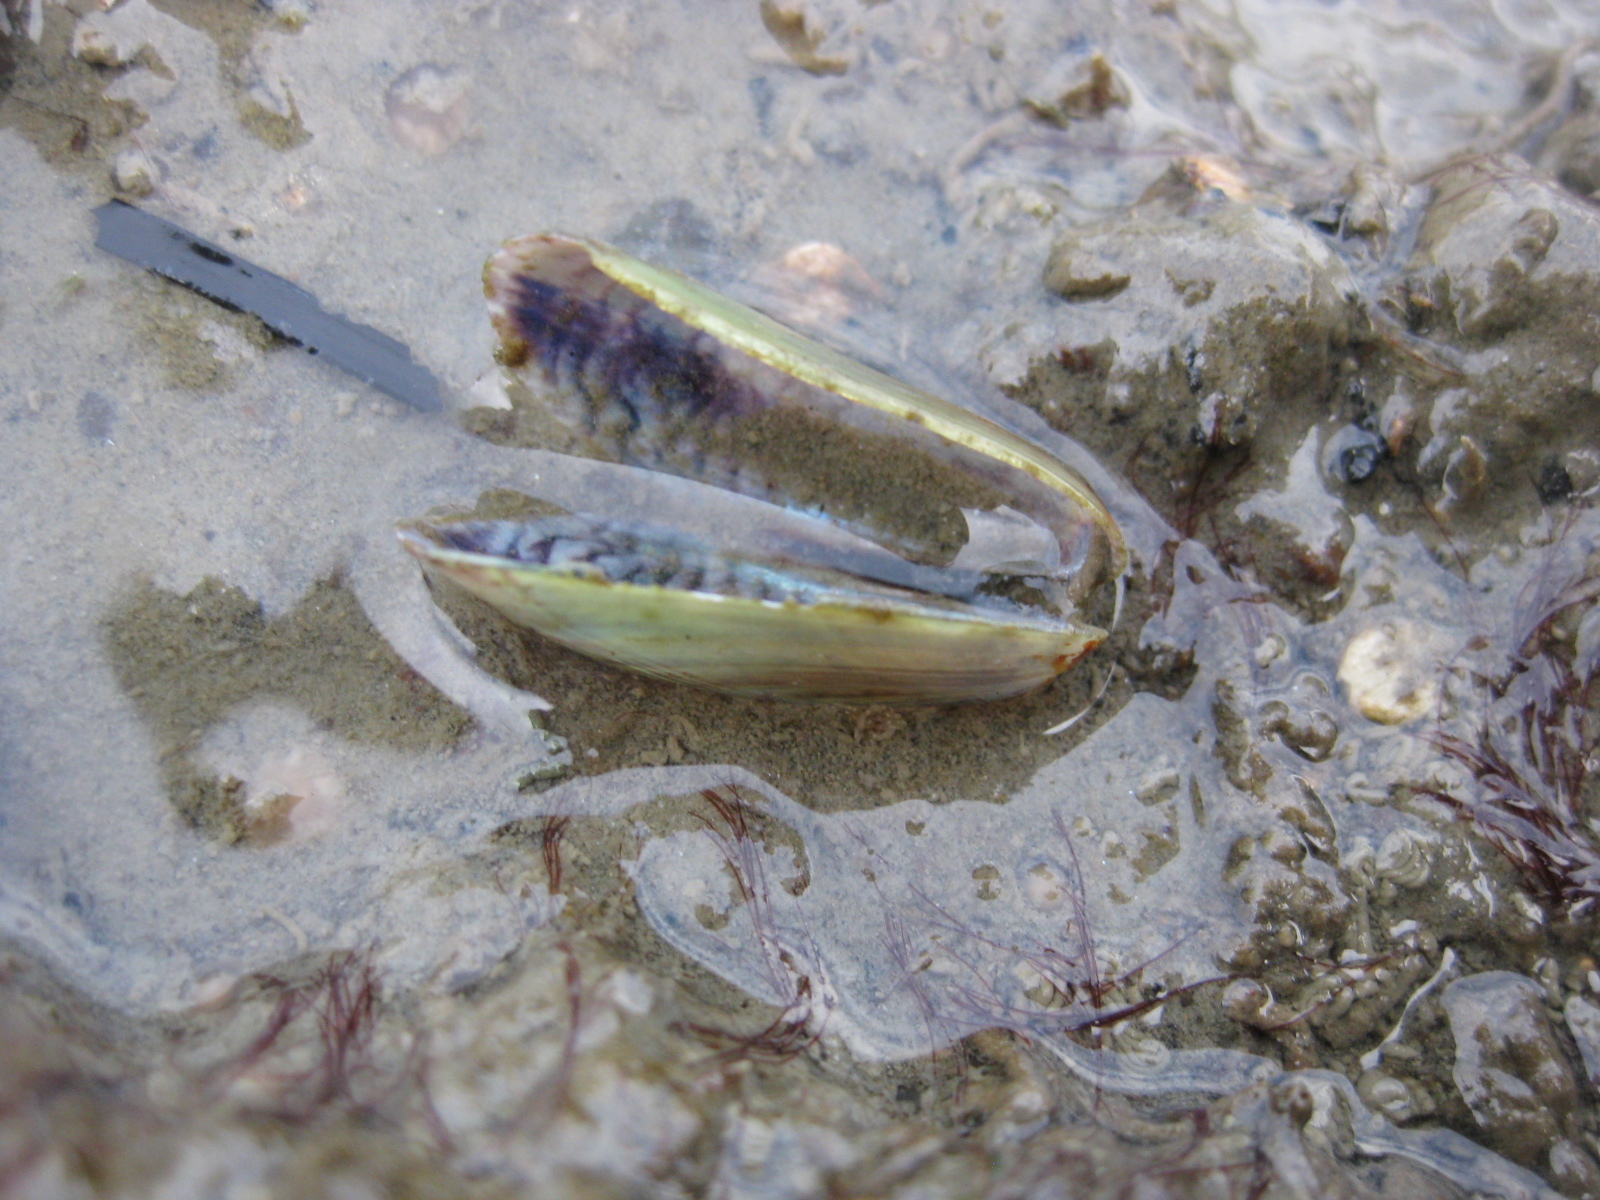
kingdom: Animalia
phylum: Mollusca
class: Bivalvia
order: Mytilida
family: Mytilidae
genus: Arcuatula
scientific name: Arcuatula senhousia
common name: Asian mussel
